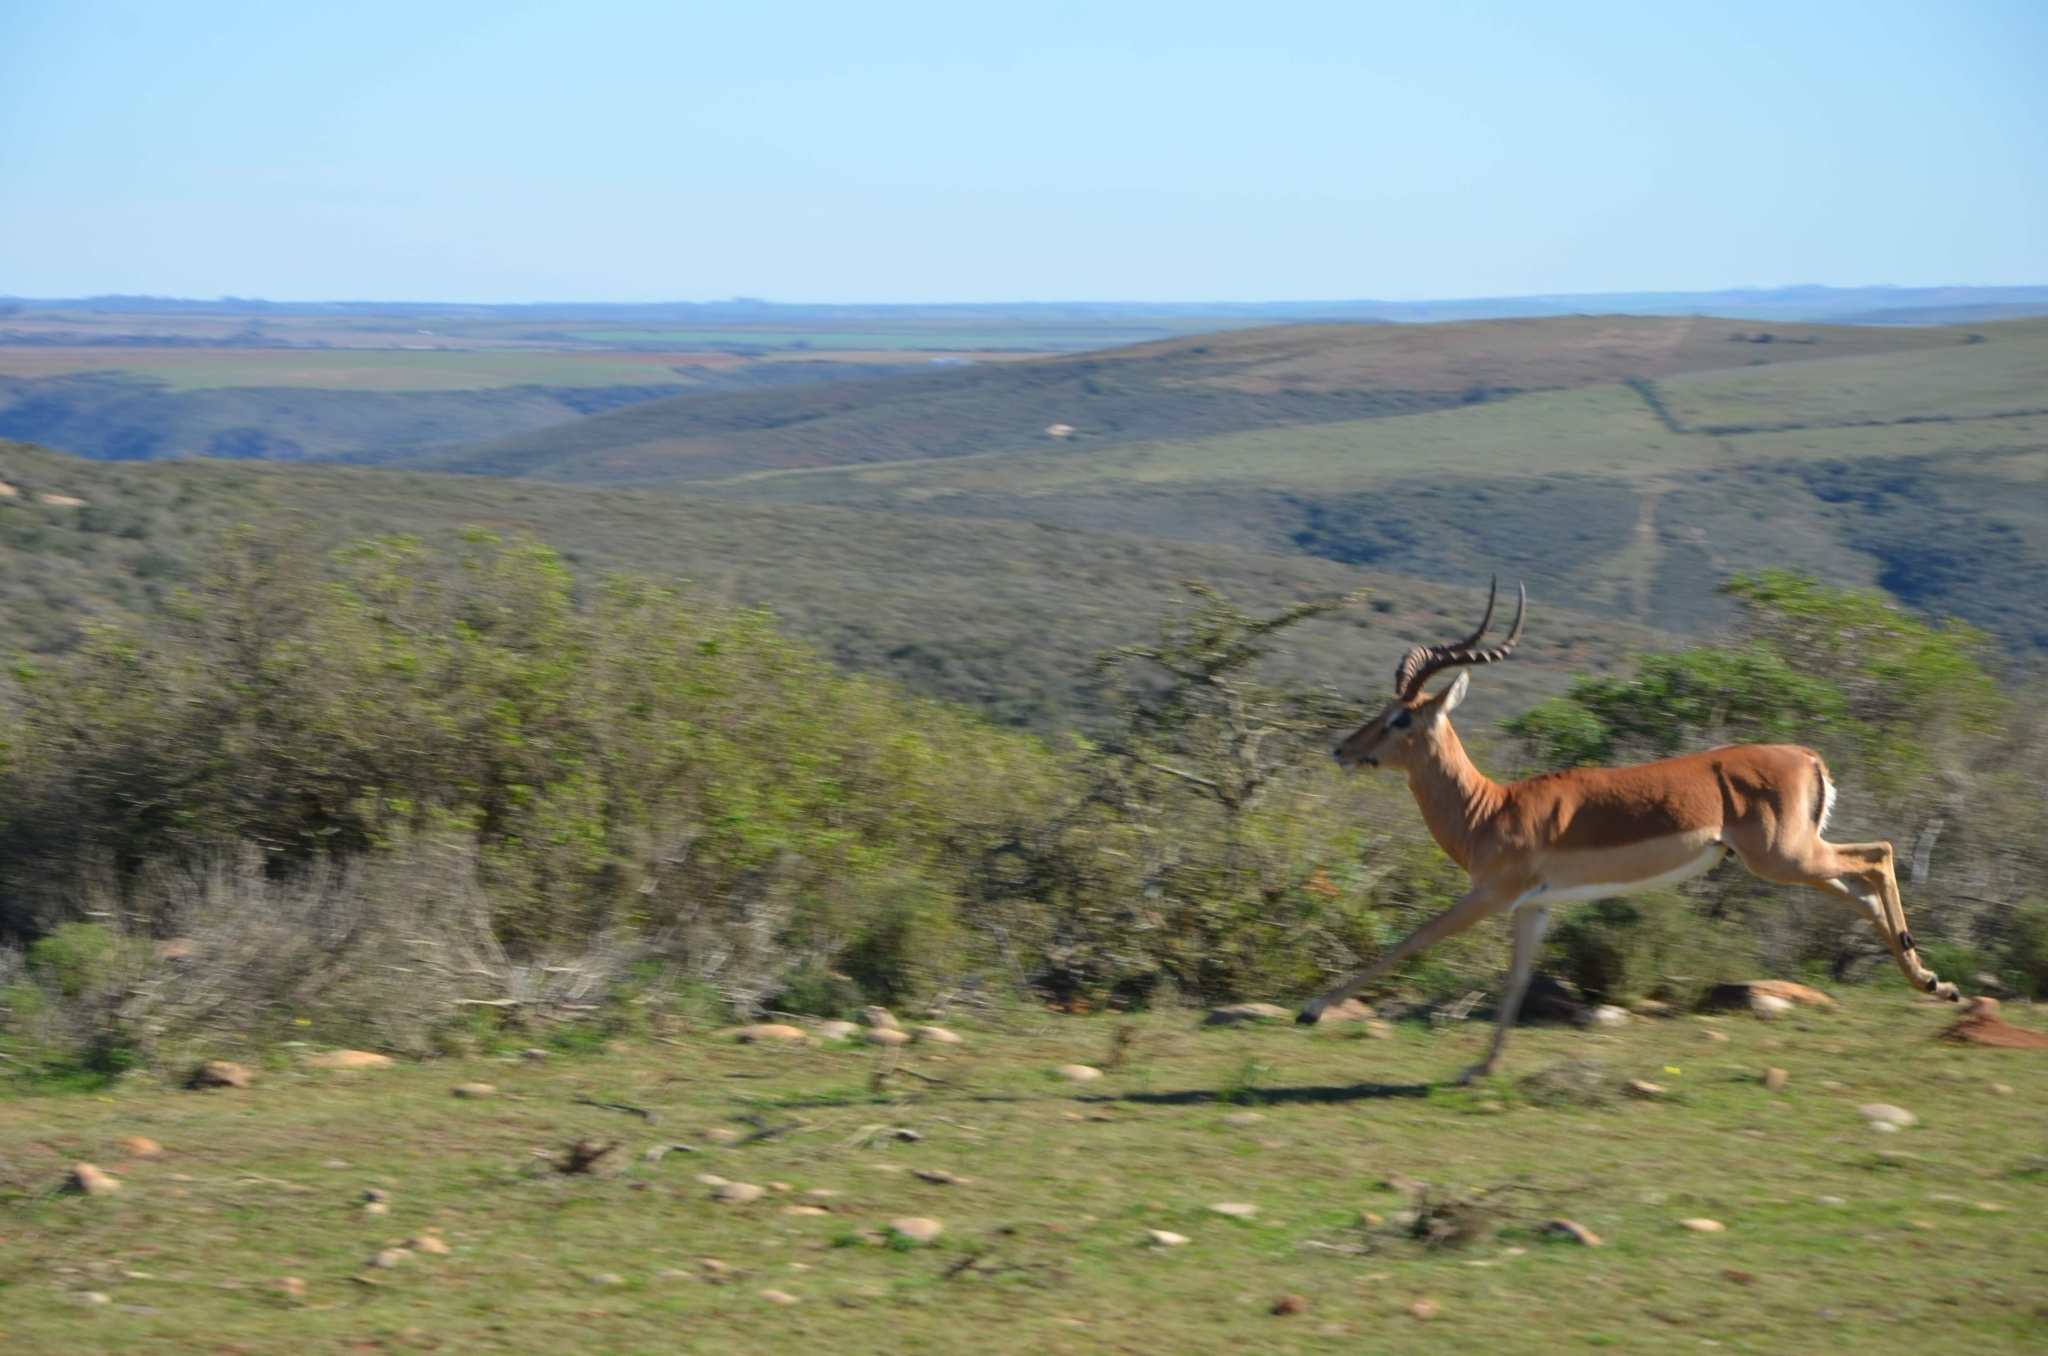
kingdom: Animalia
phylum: Chordata
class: Mammalia
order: Artiodactyla
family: Bovidae
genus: Aepyceros
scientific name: Aepyceros melampus
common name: Impala
